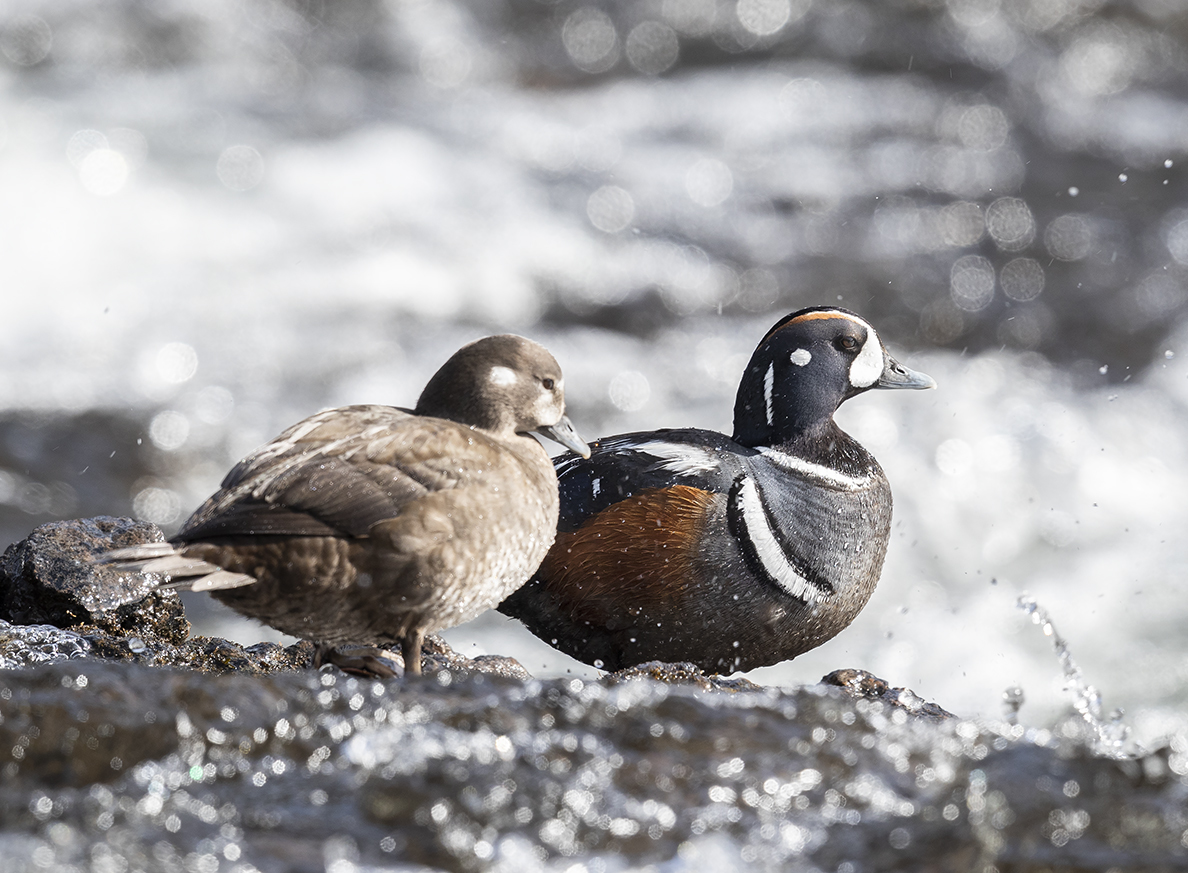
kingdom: Animalia
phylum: Chordata
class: Aves
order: Anseriformes
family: Anatidae
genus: Histrionicus
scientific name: Histrionicus histrionicus
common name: Harlequin duck
